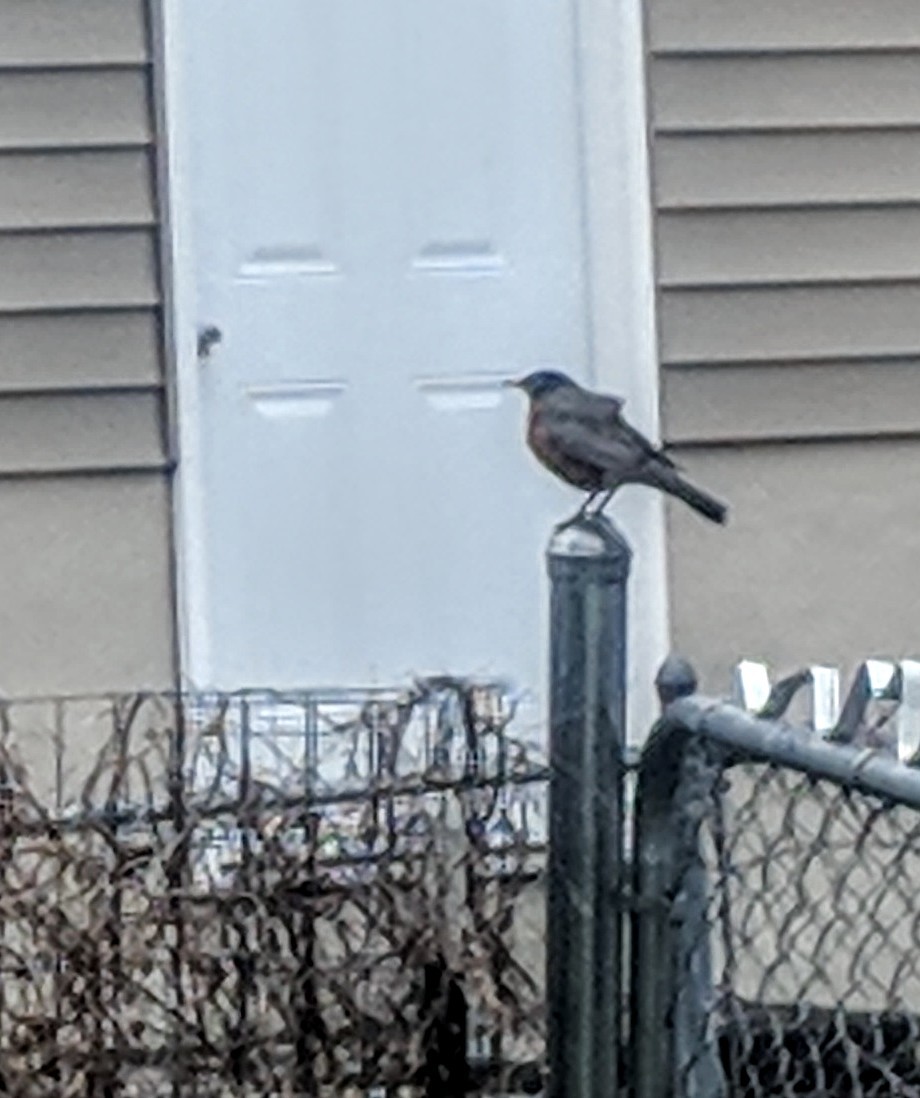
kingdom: Animalia
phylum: Chordata
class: Aves
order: Passeriformes
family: Turdidae
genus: Turdus
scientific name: Turdus migratorius
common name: American robin
